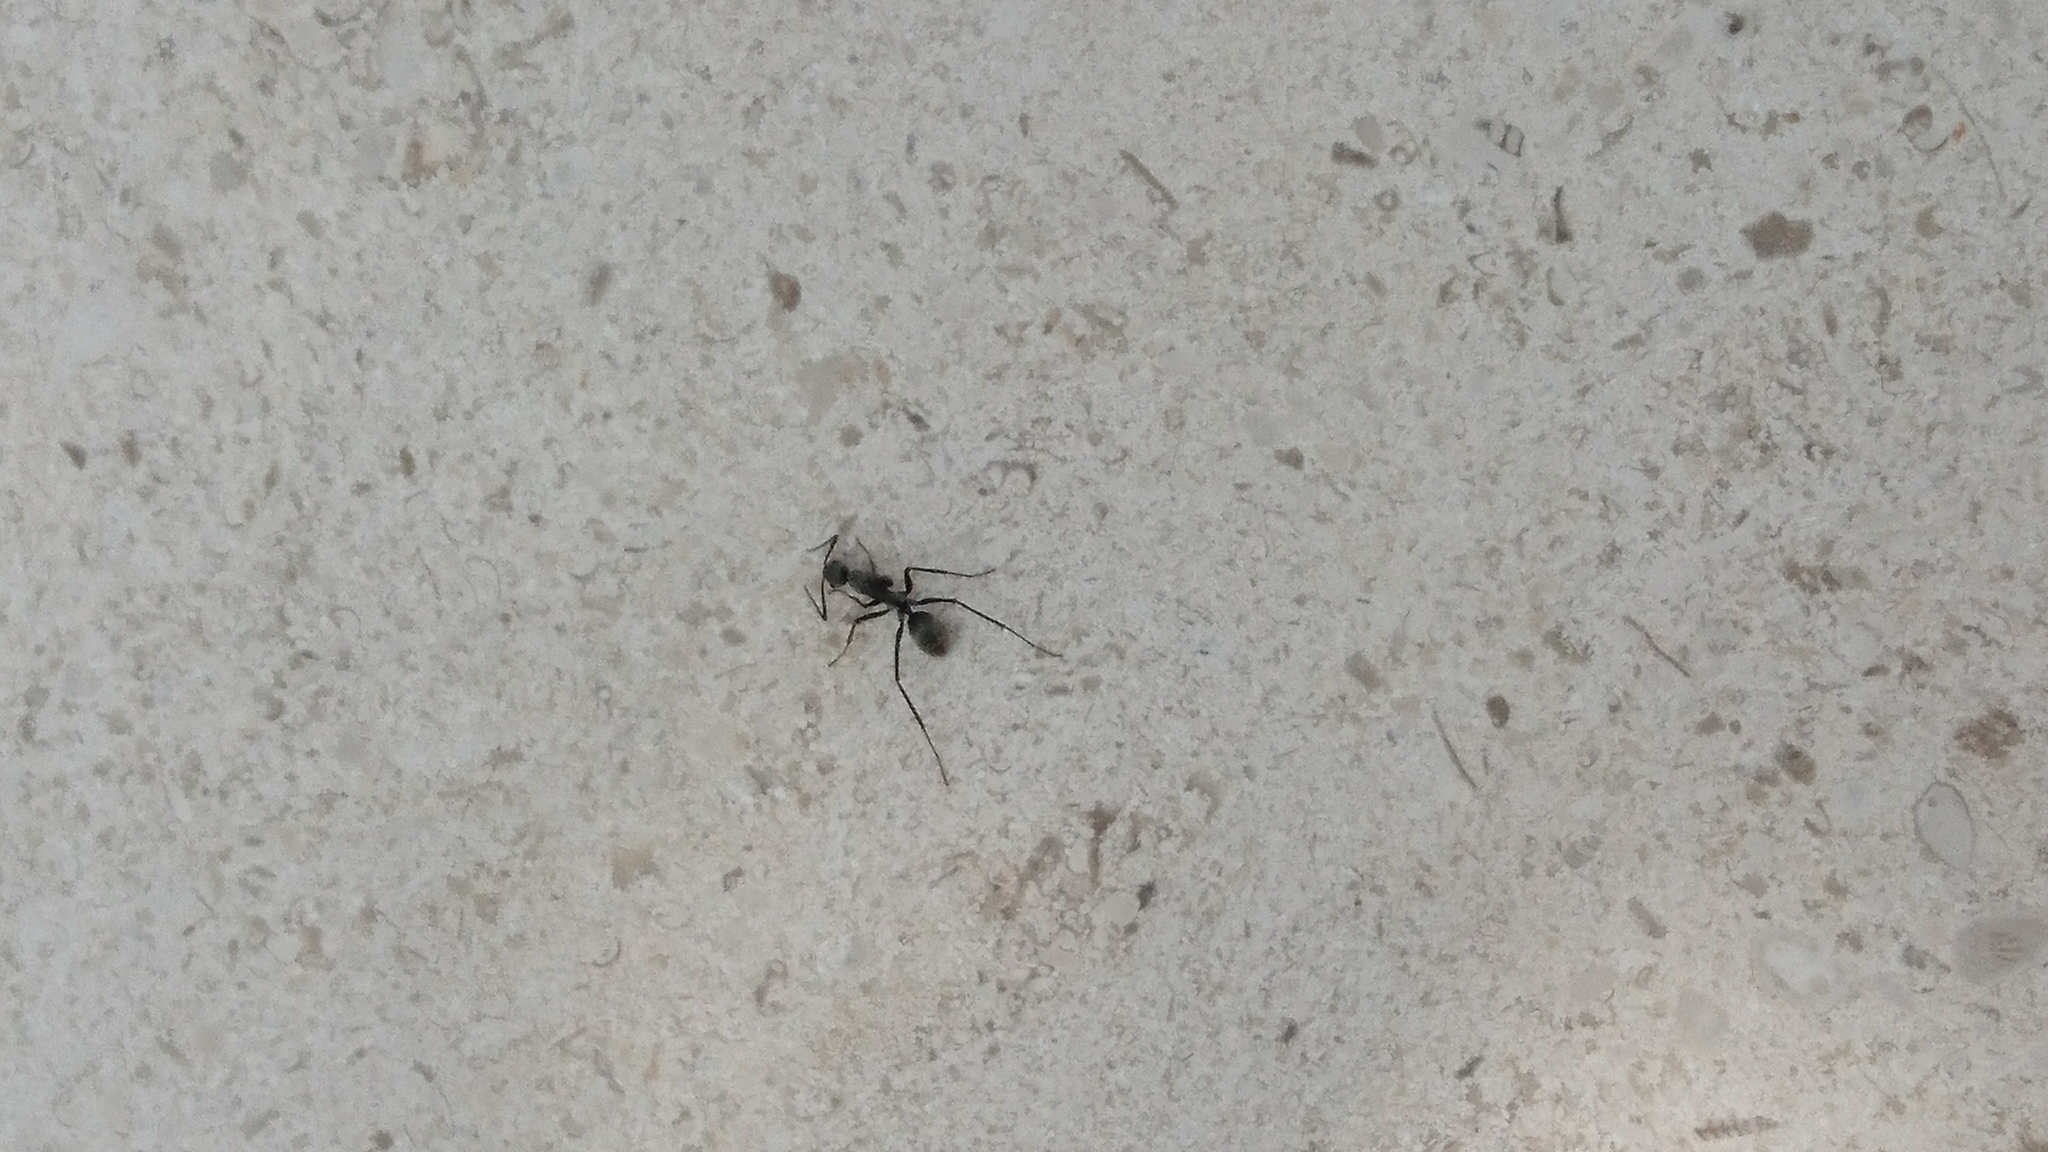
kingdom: Animalia
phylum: Arthropoda
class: Insecta
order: Hymenoptera
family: Formicidae
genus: Myrmosericus
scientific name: Myrmosericus
